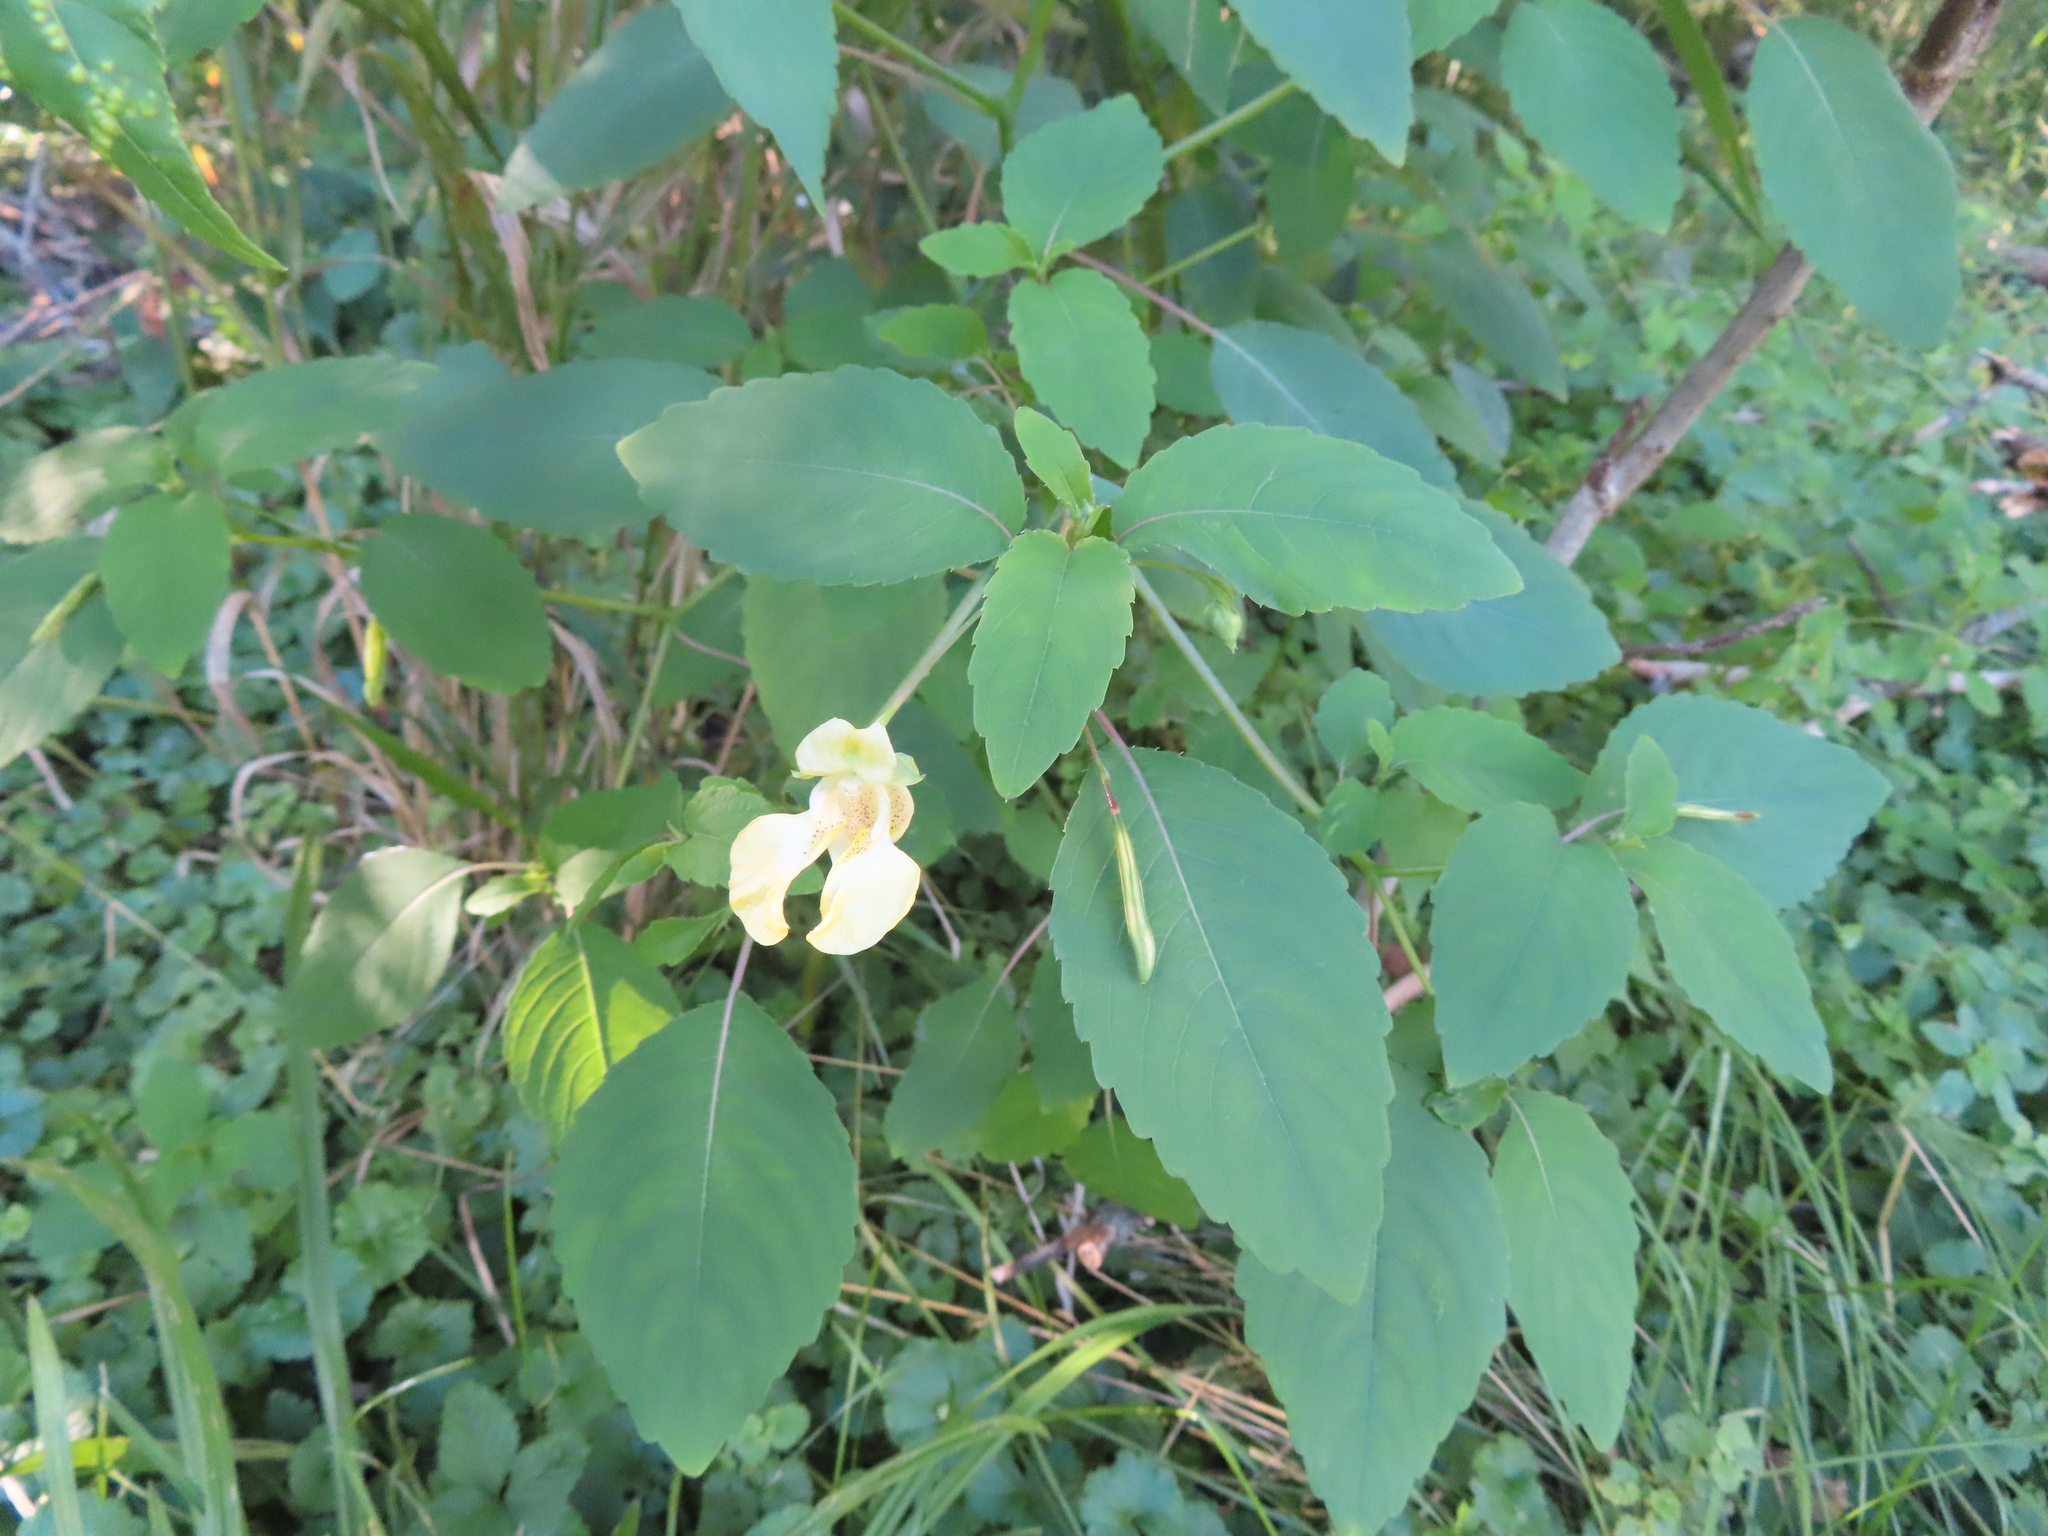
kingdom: Plantae
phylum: Tracheophyta
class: Magnoliopsida
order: Ericales
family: Balsaminaceae
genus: Impatiens
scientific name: Impatiens pallida
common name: Pale snapweed
